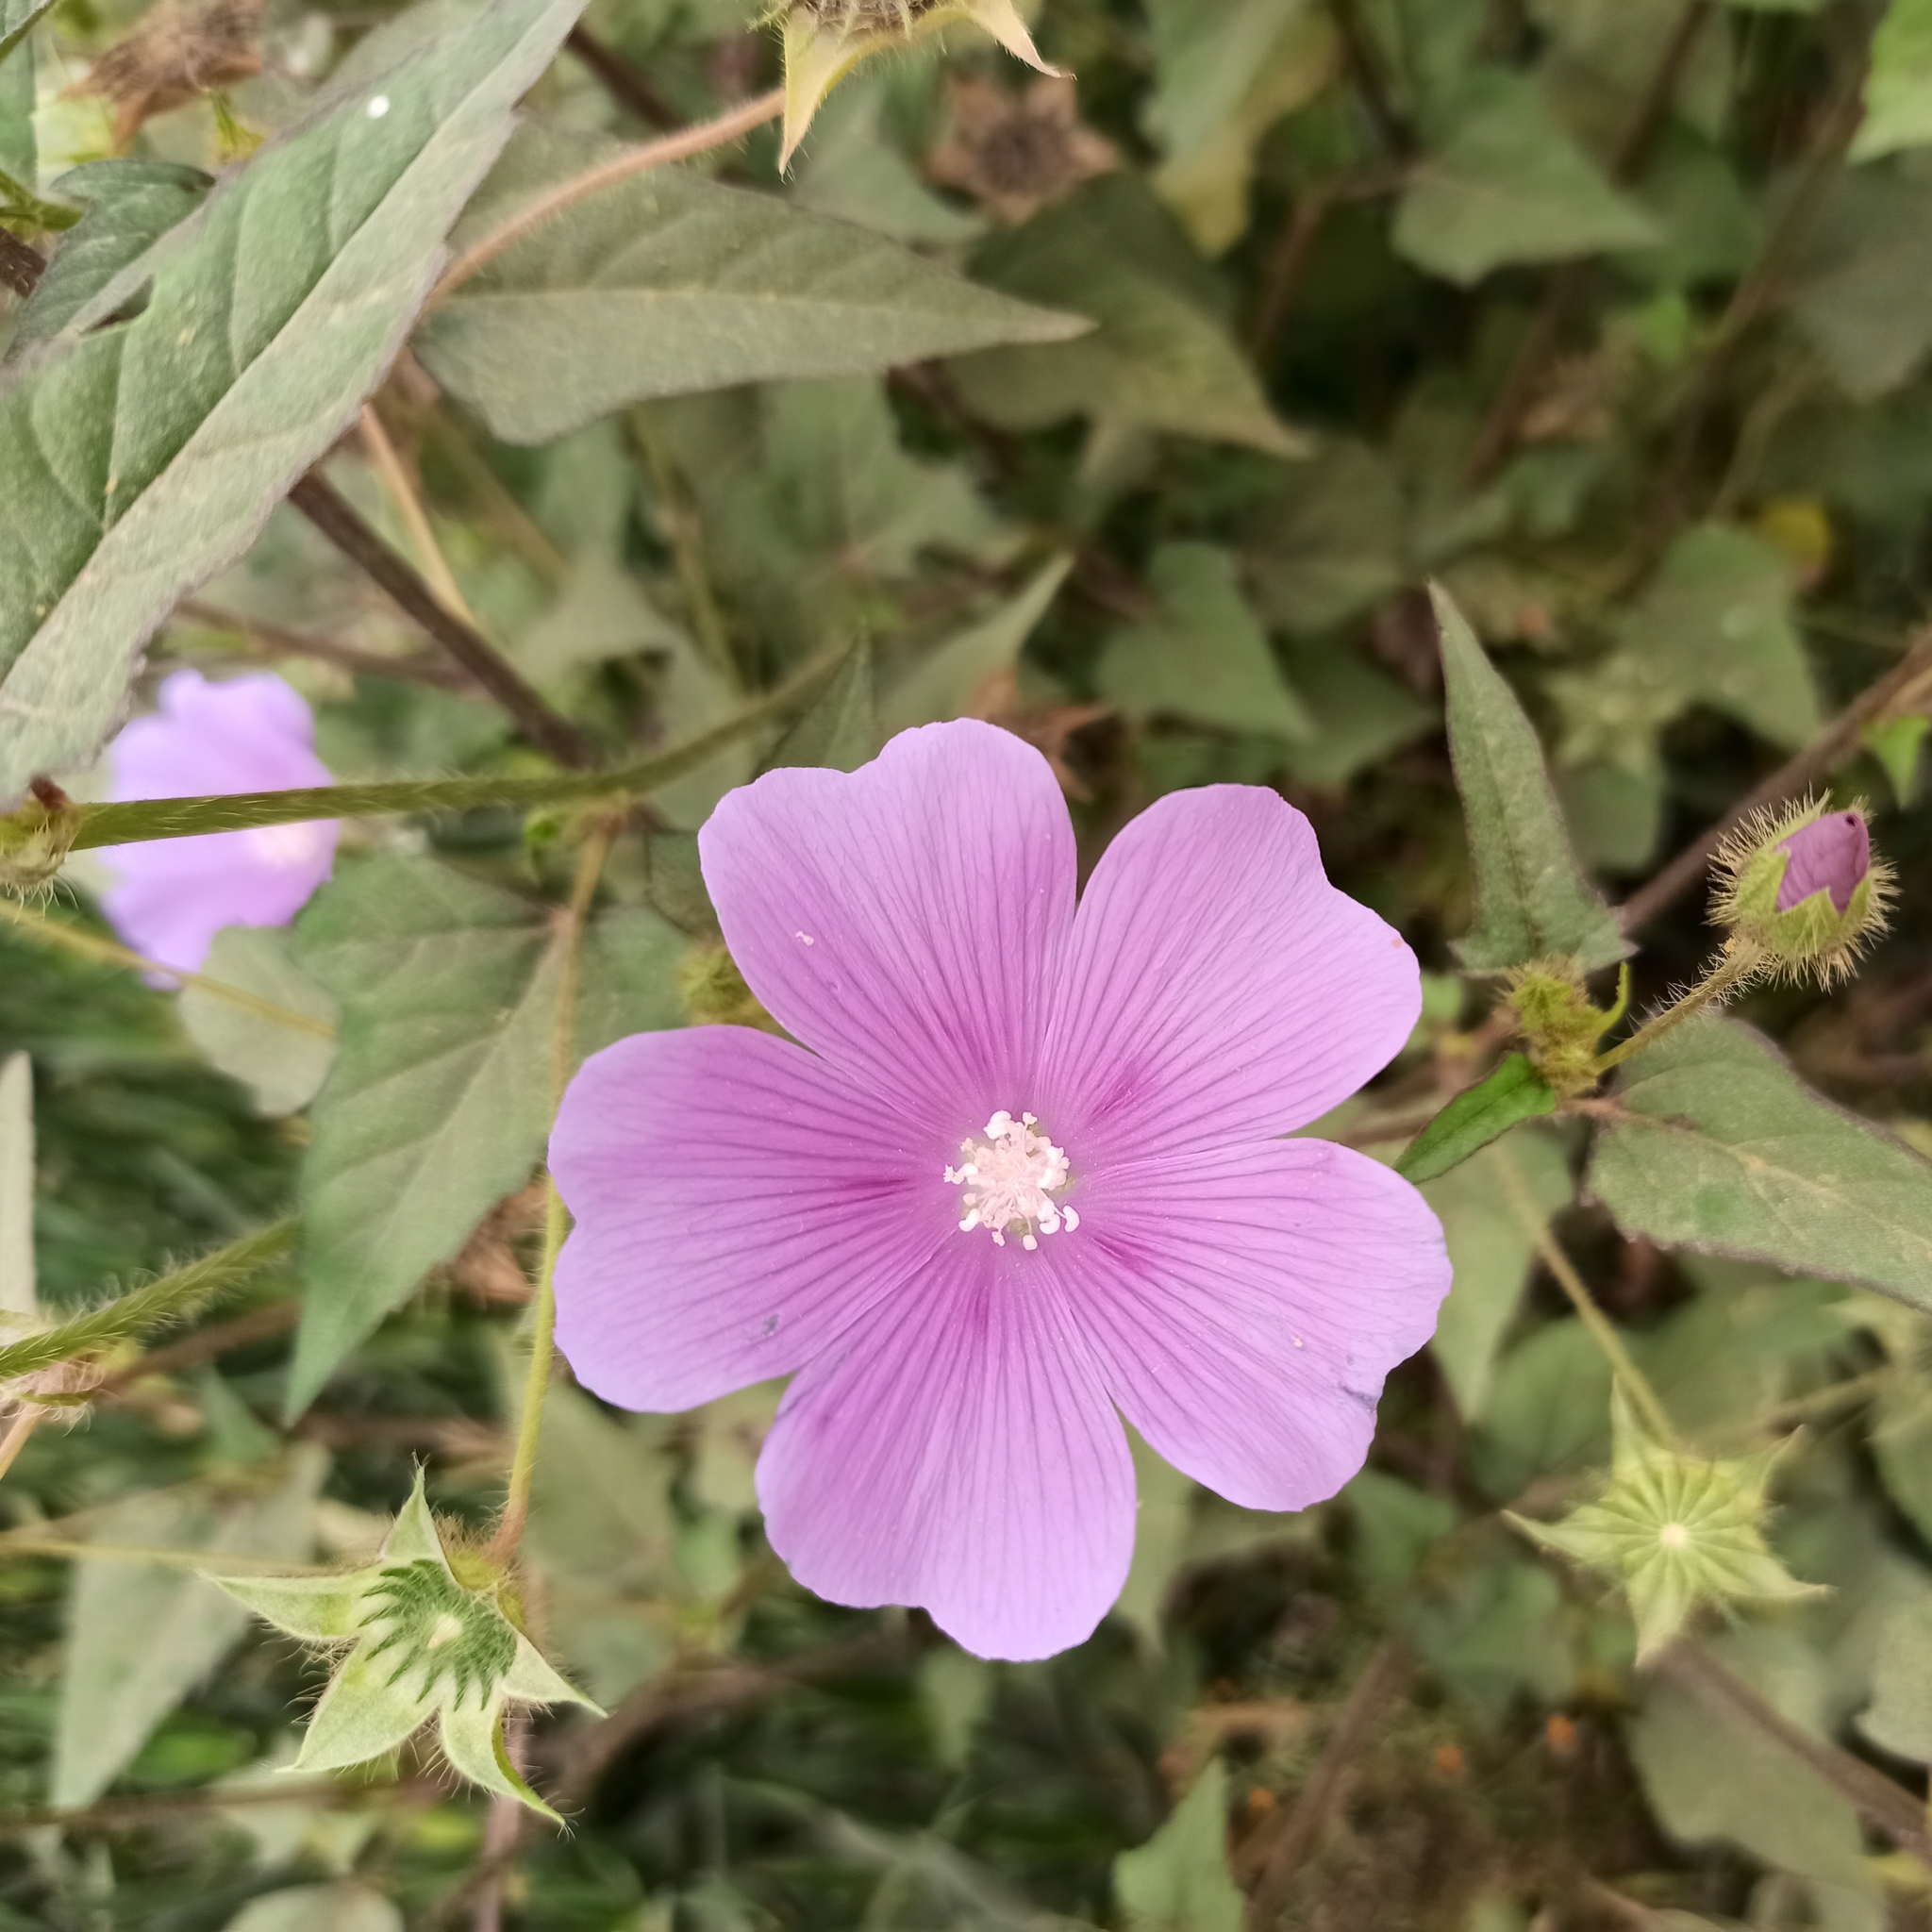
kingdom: Plantae
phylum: Tracheophyta
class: Magnoliopsida
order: Malvales
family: Malvaceae
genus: Anoda
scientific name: Anoda cristata
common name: Spurred anoda
